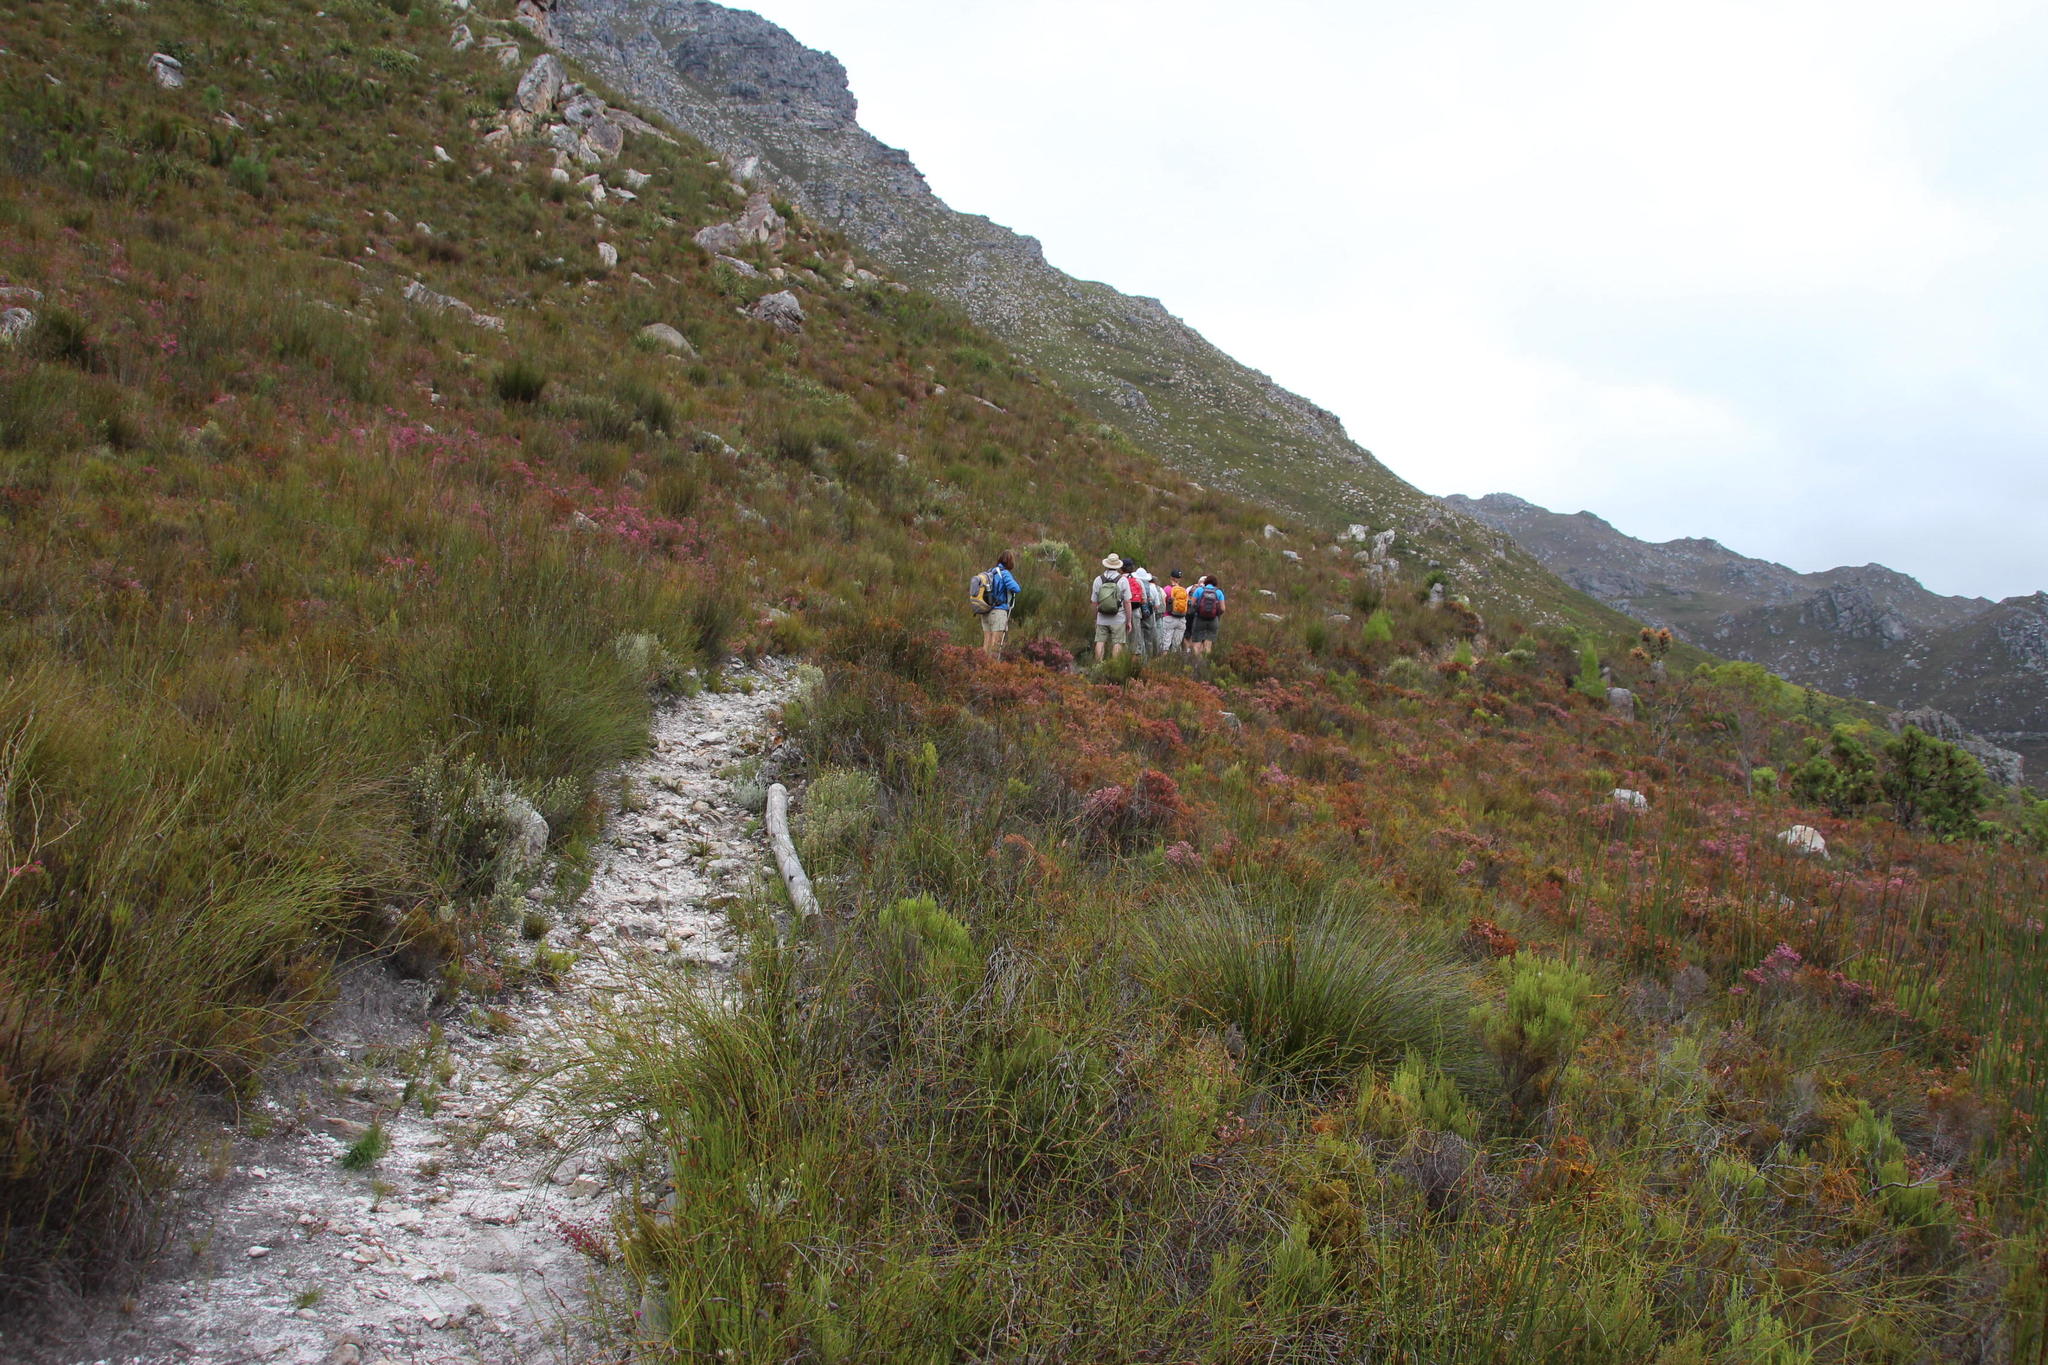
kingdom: Plantae
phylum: Tracheophyta
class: Magnoliopsida
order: Ericales
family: Ericaceae
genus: Erica
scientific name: Erica corifolia
